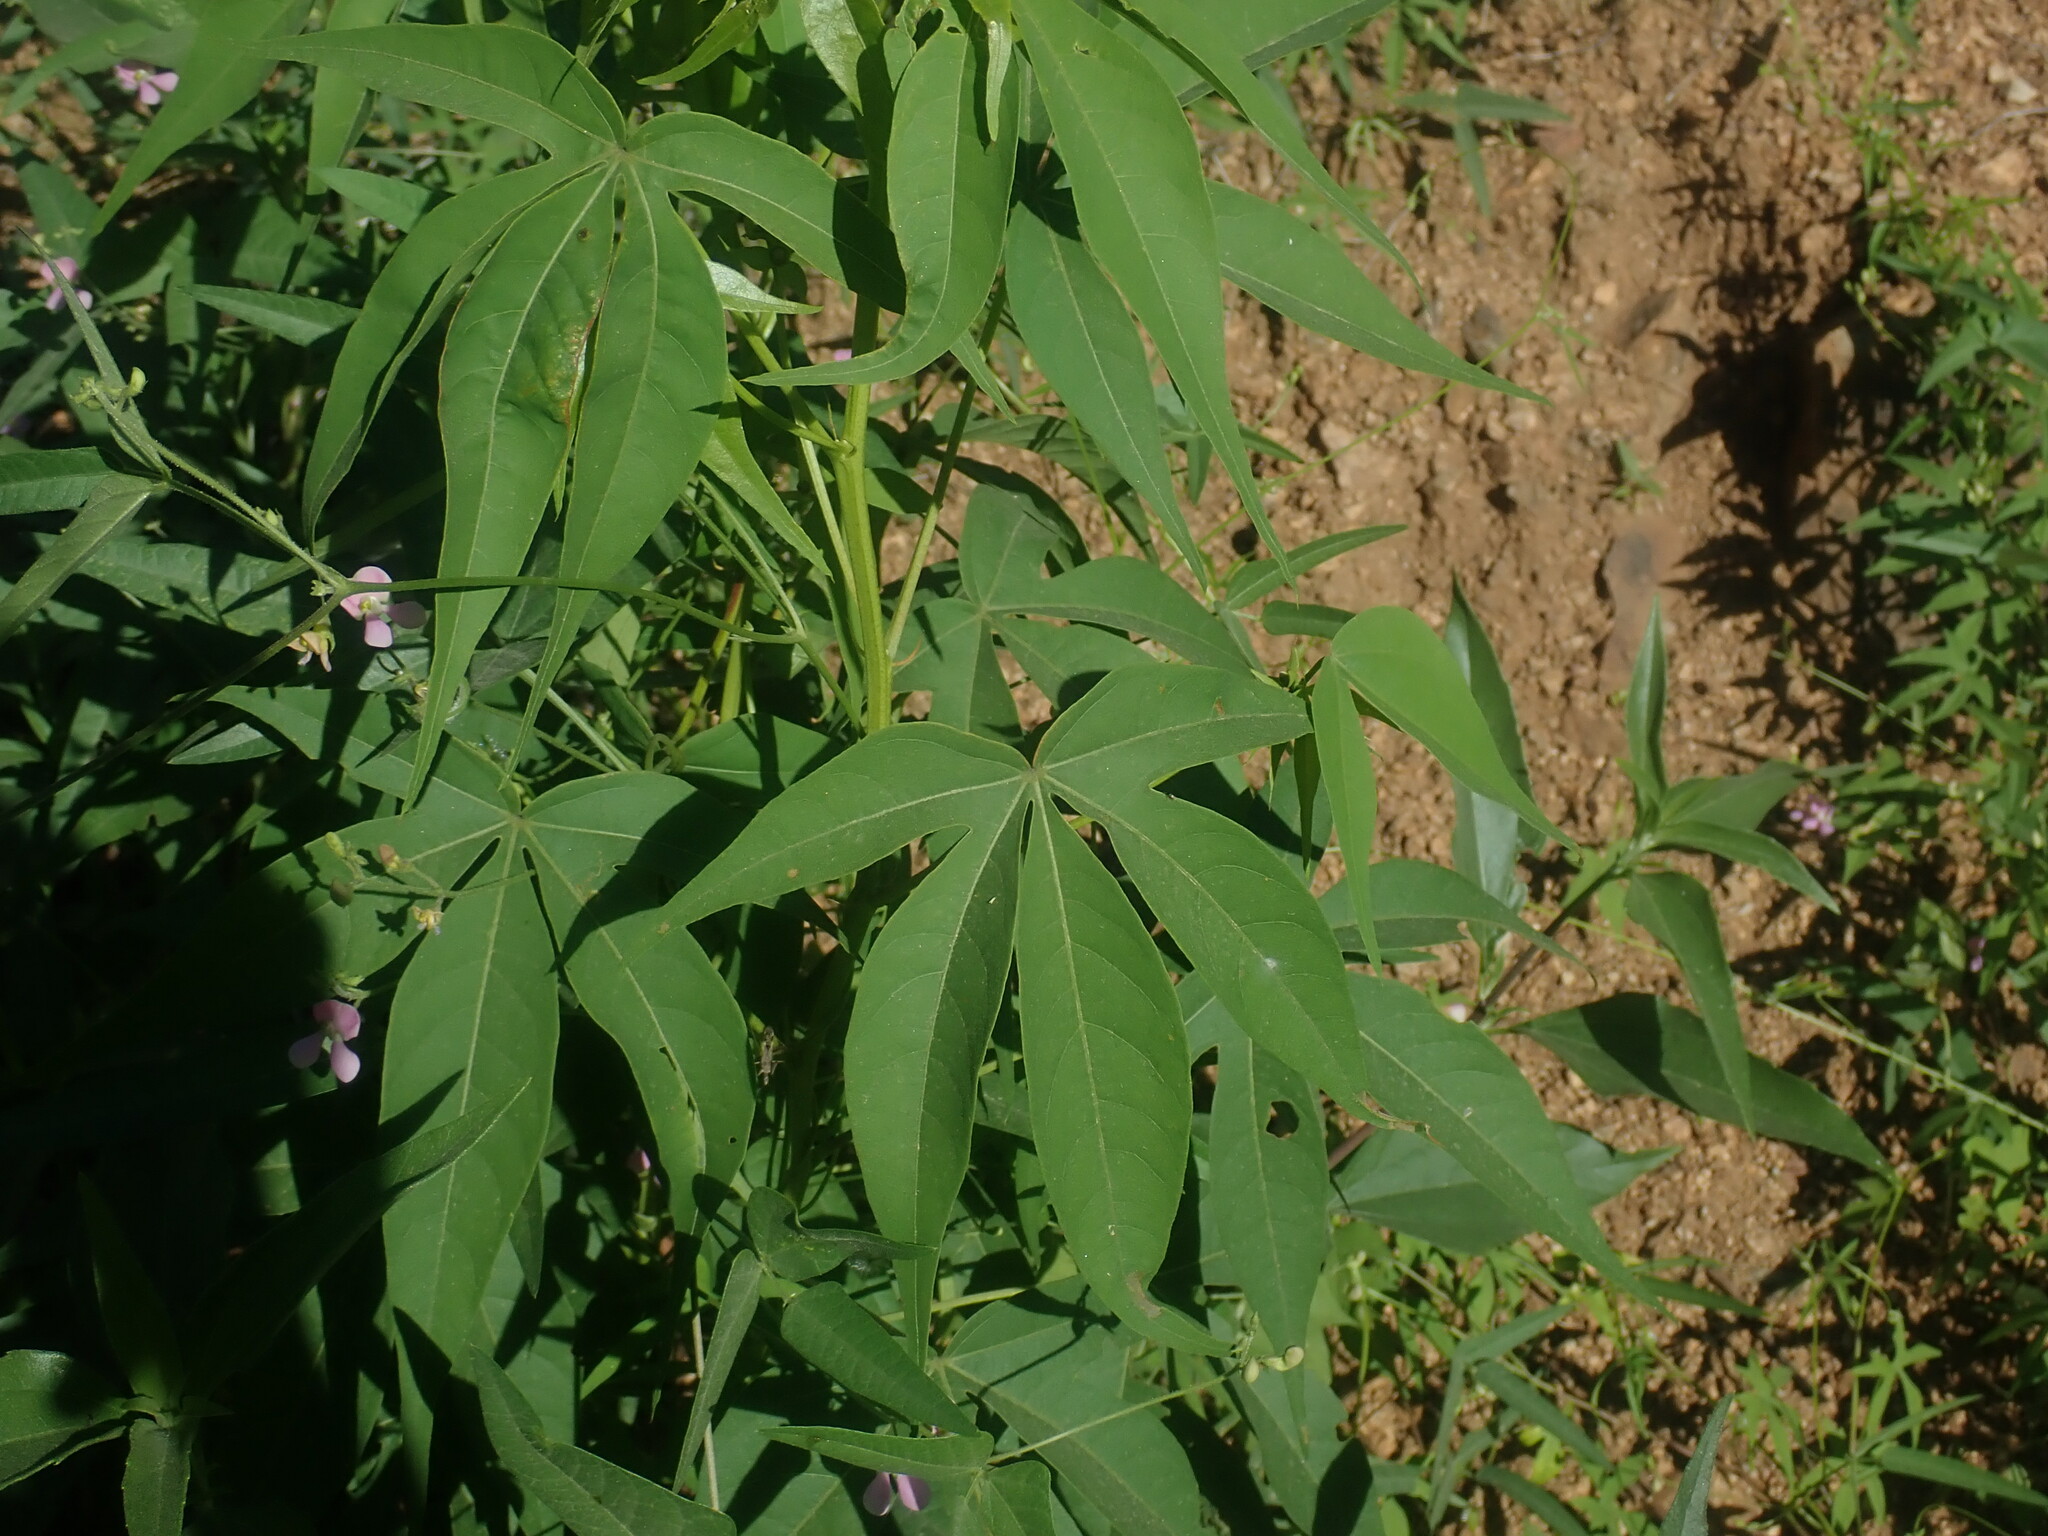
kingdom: Plantae
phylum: Tracheophyta
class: Magnoliopsida
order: Malvales
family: Malvaceae
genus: Gossypium
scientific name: Gossypium thurberi
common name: Desert cotton
